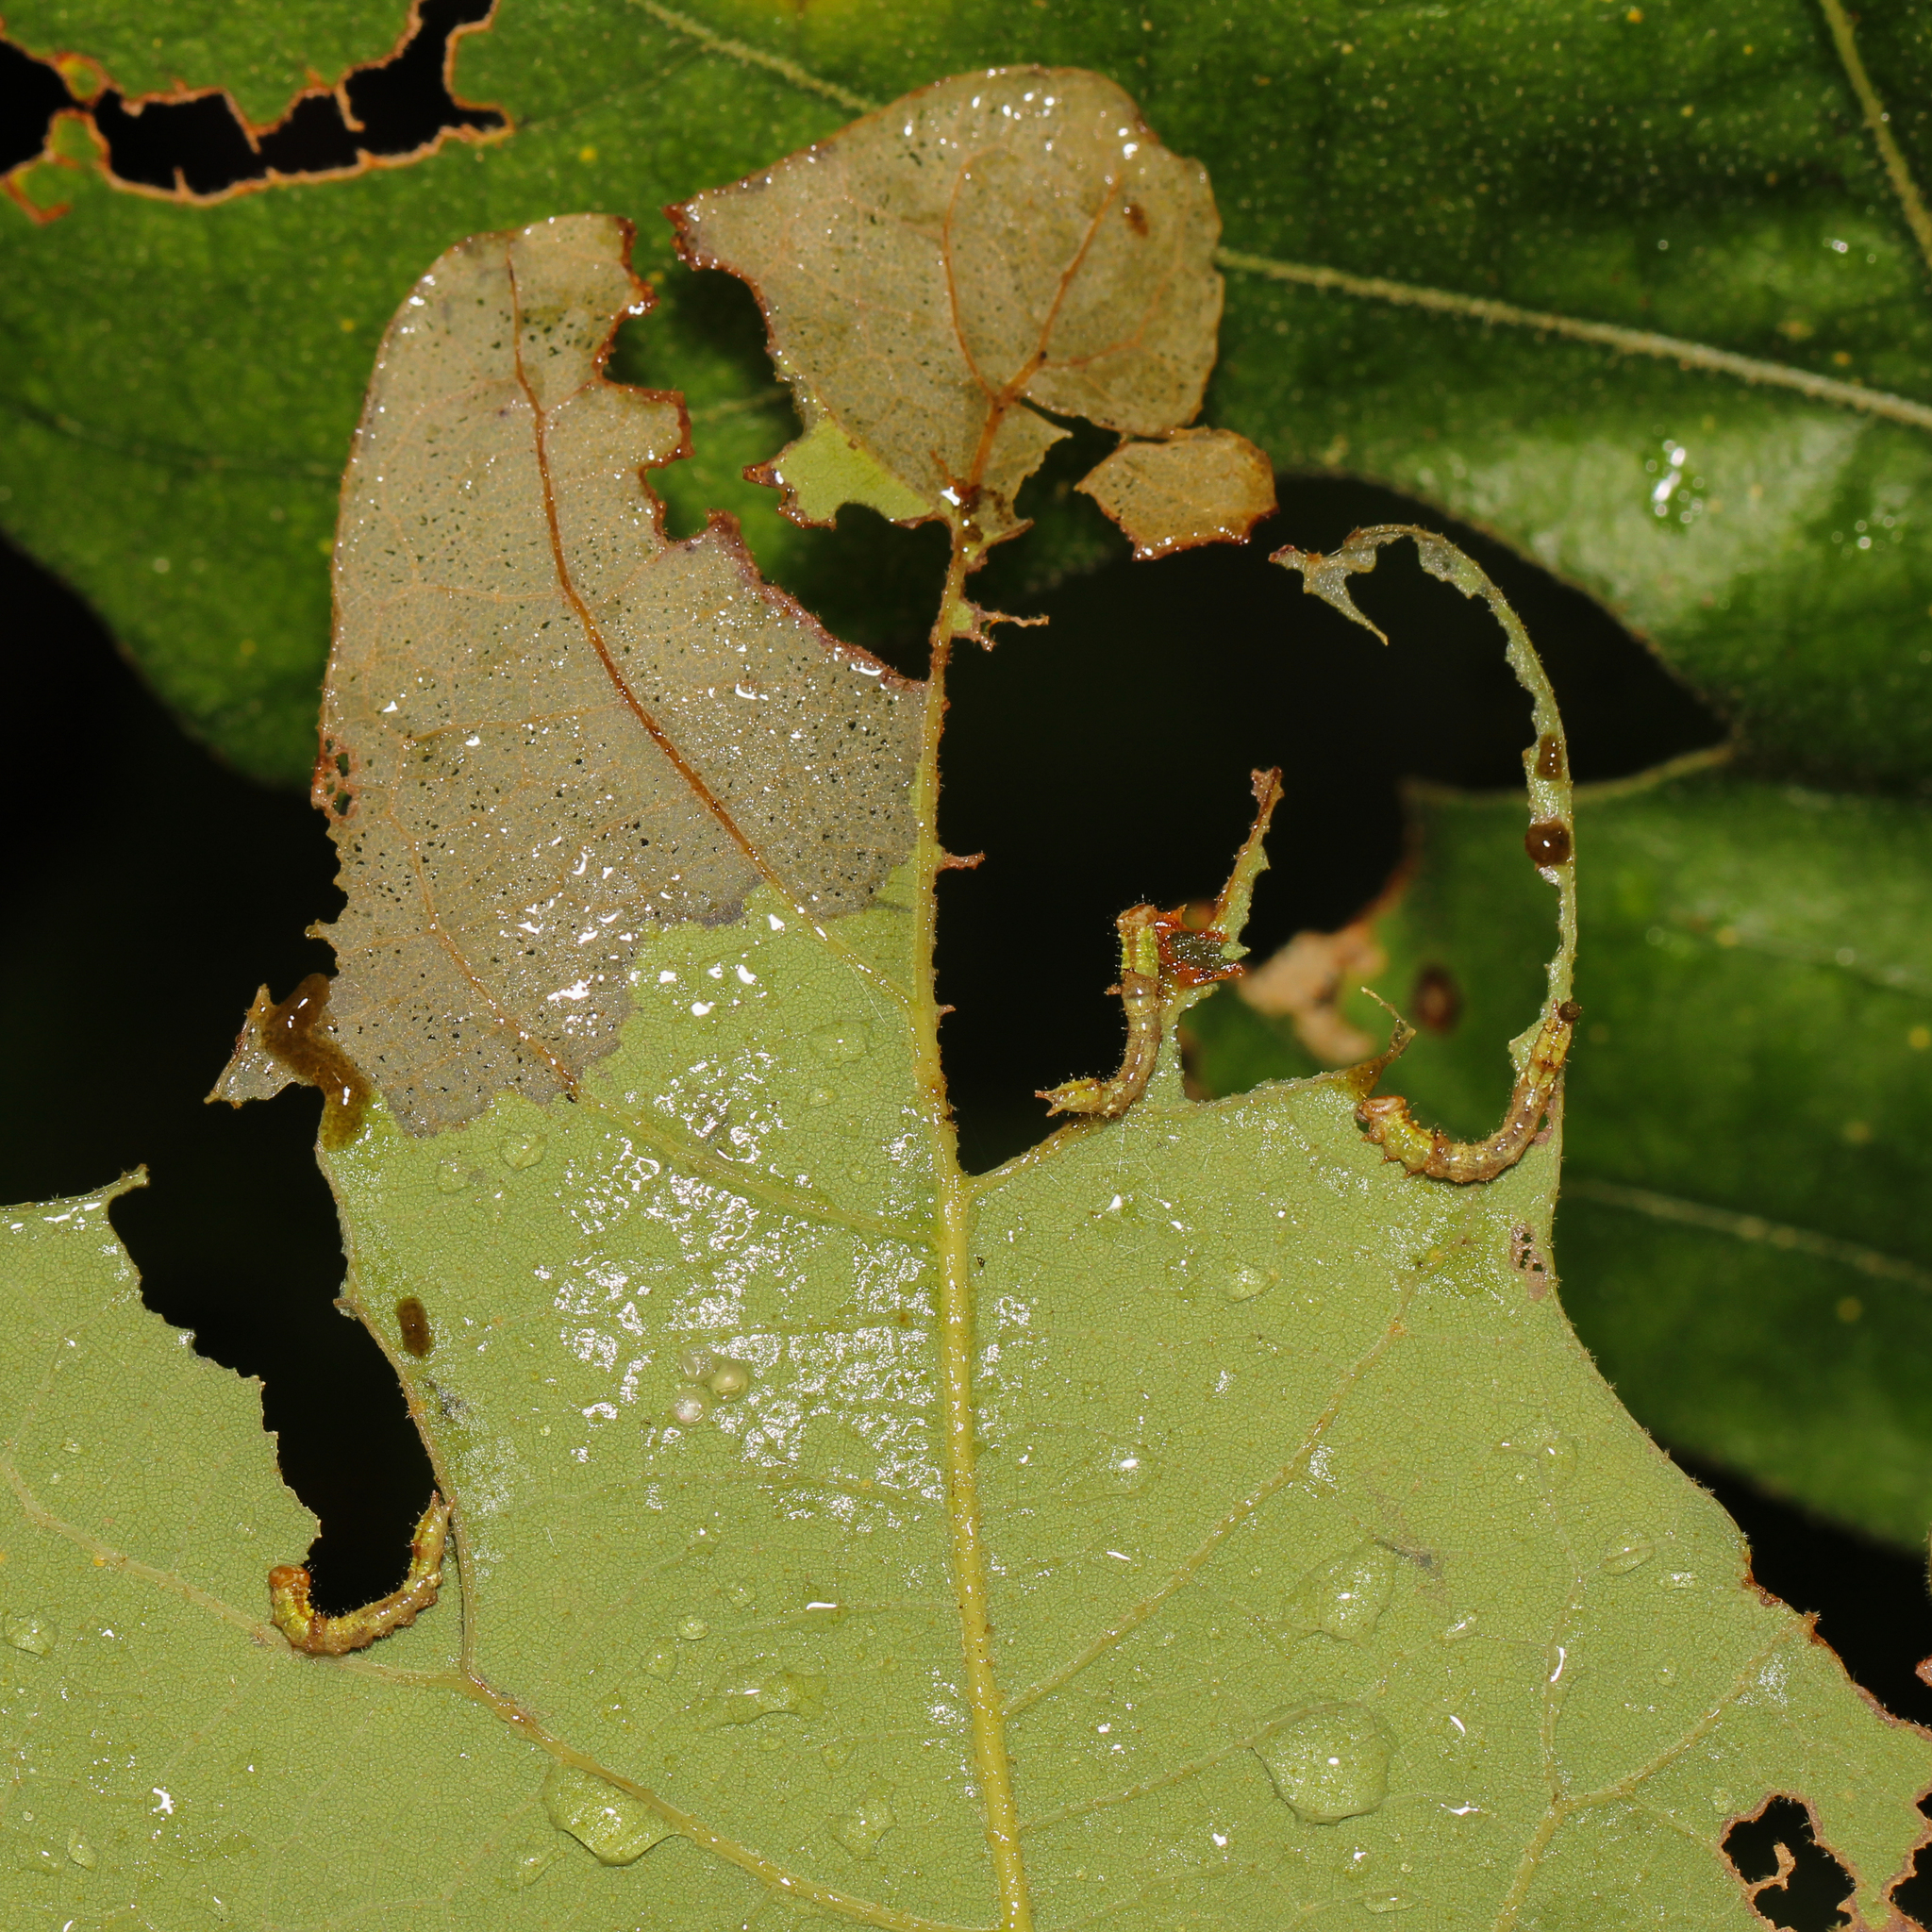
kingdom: Animalia
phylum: Arthropoda
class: Insecta
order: Lepidoptera
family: Notodontidae
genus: Schizura
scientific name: Schizura
